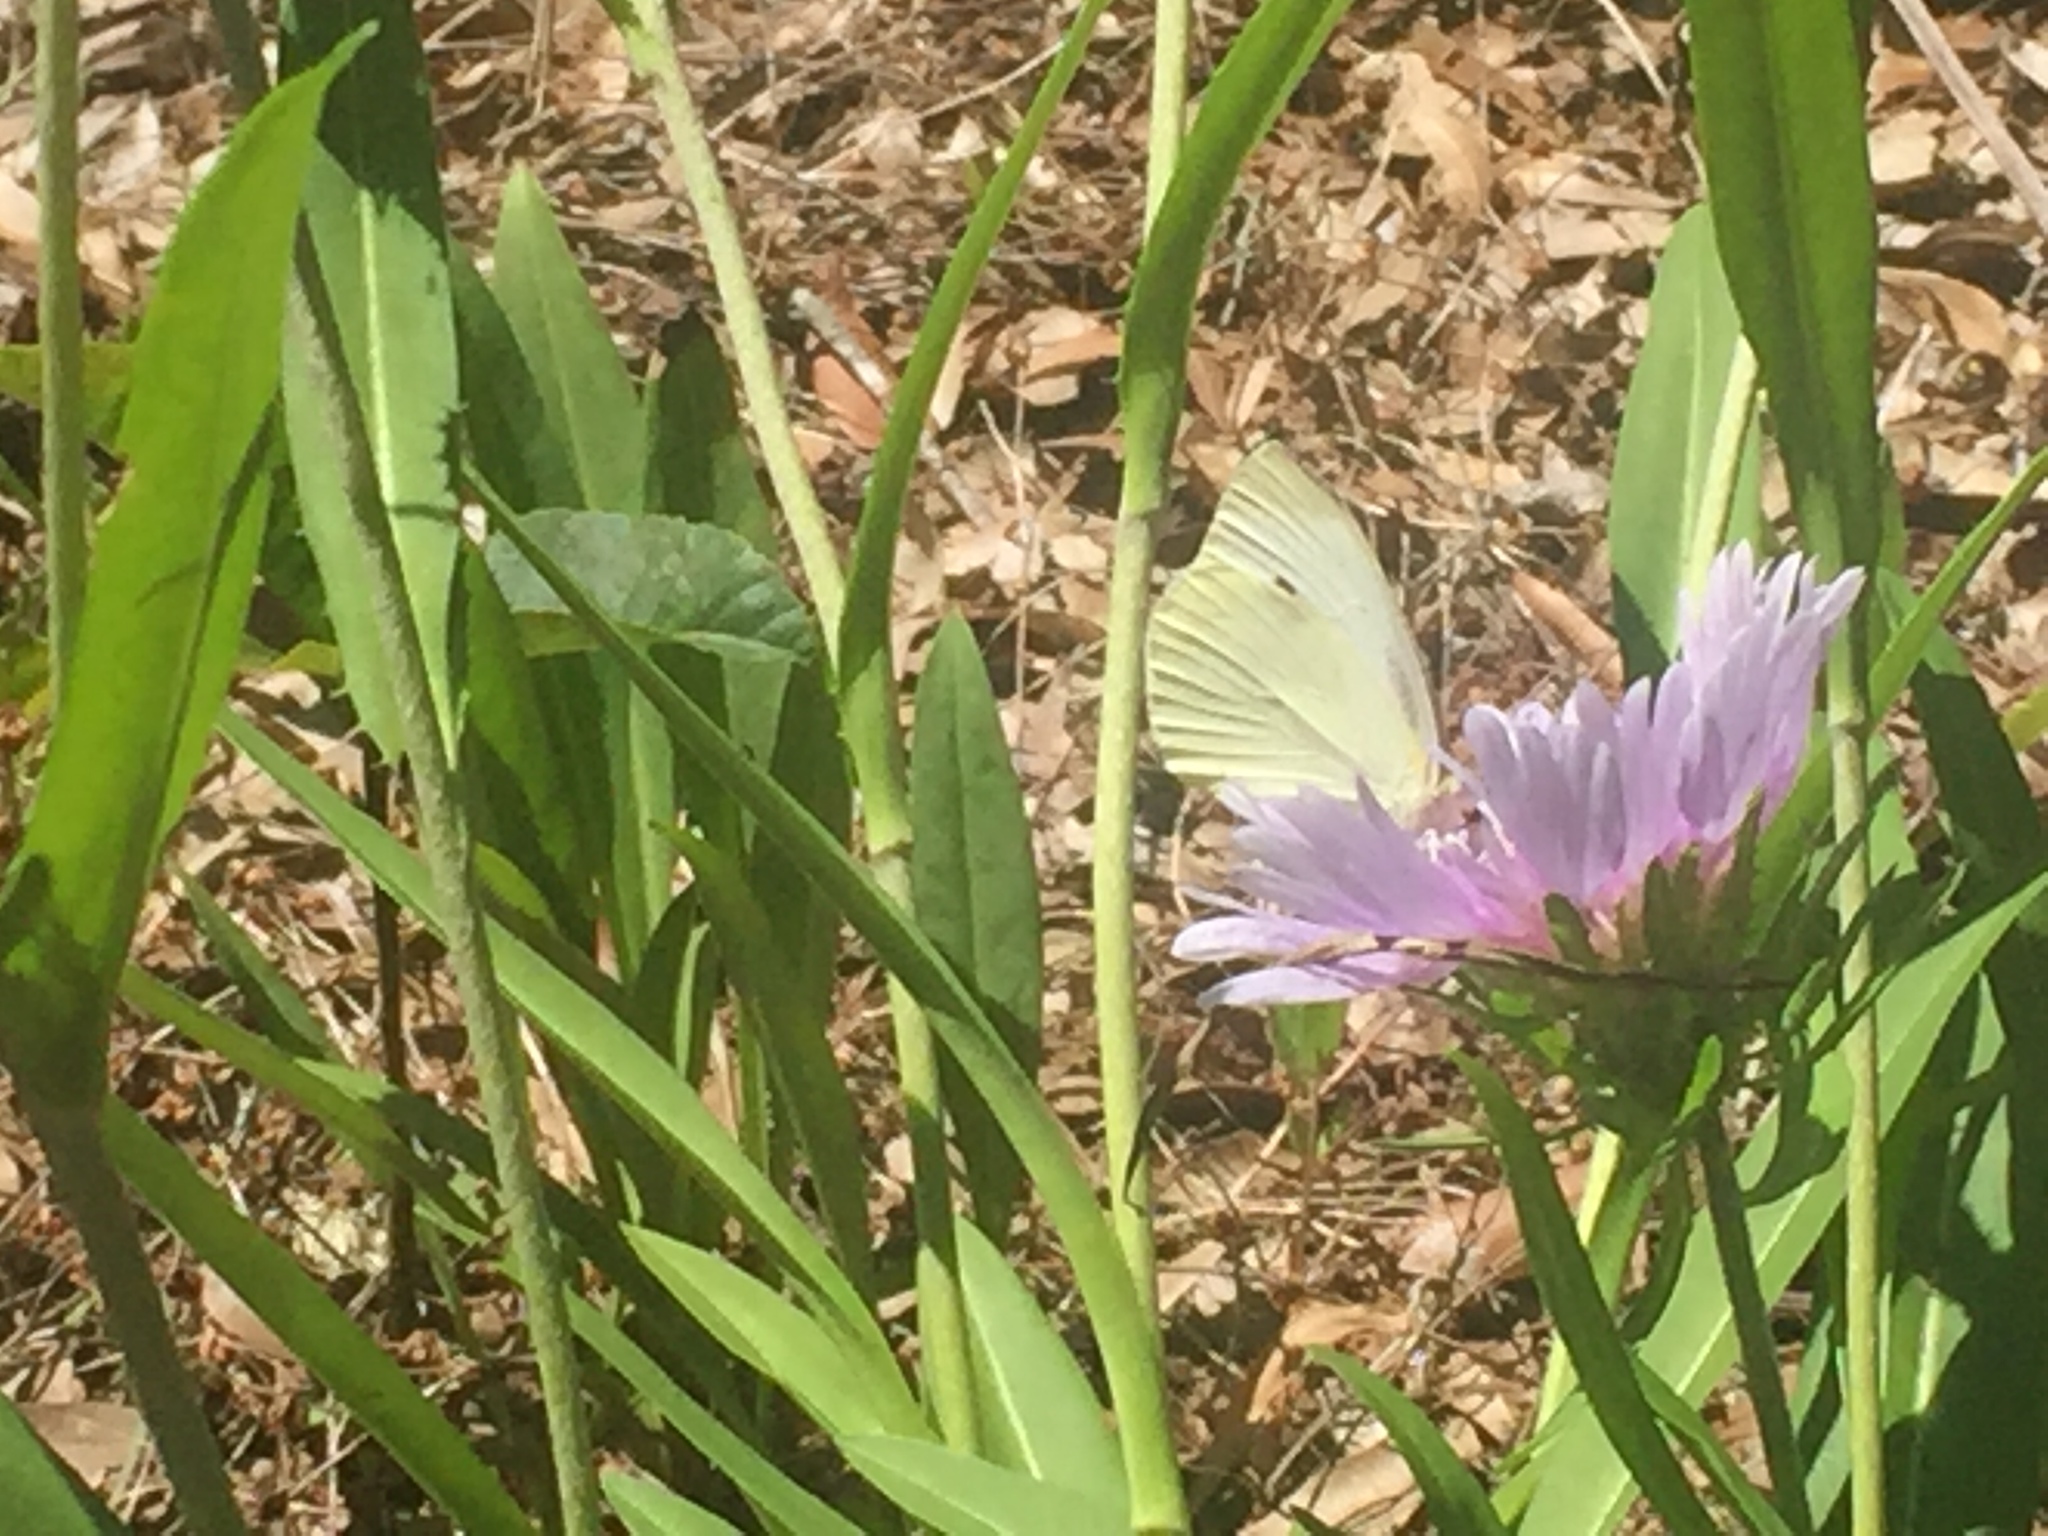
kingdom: Animalia
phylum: Arthropoda
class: Insecta
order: Lepidoptera
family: Pieridae
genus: Pieris
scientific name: Pieris rapae
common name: Small white
